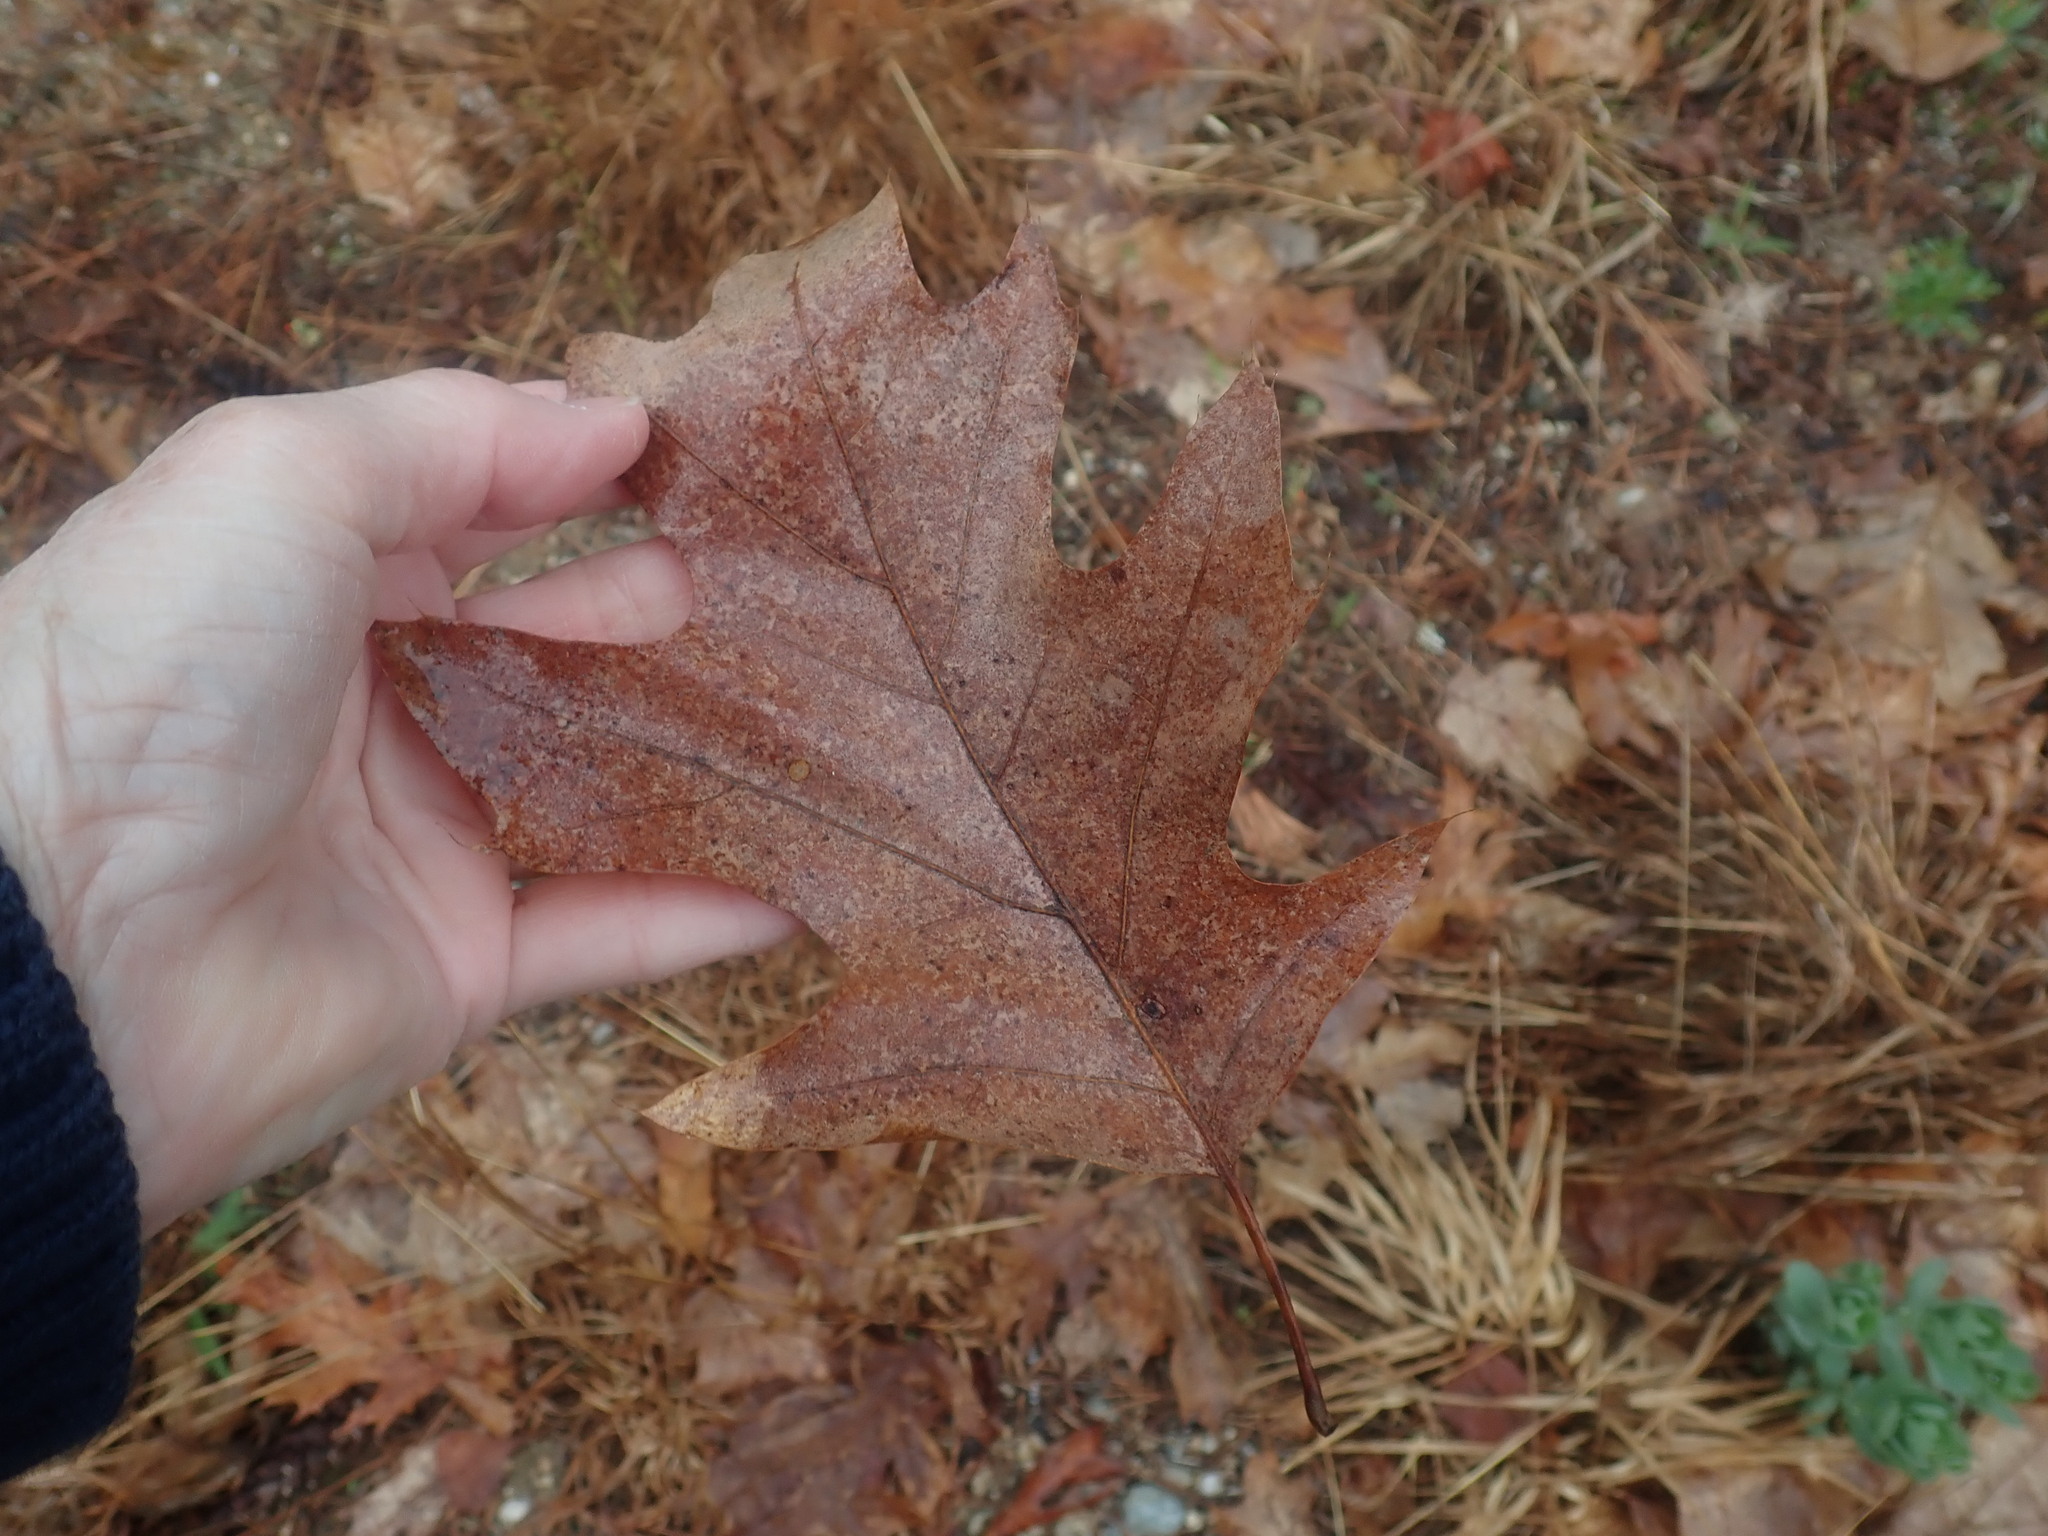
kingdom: Plantae
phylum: Tracheophyta
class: Magnoliopsida
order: Fagales
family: Fagaceae
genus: Quercus
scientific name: Quercus rubra
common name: Red oak
